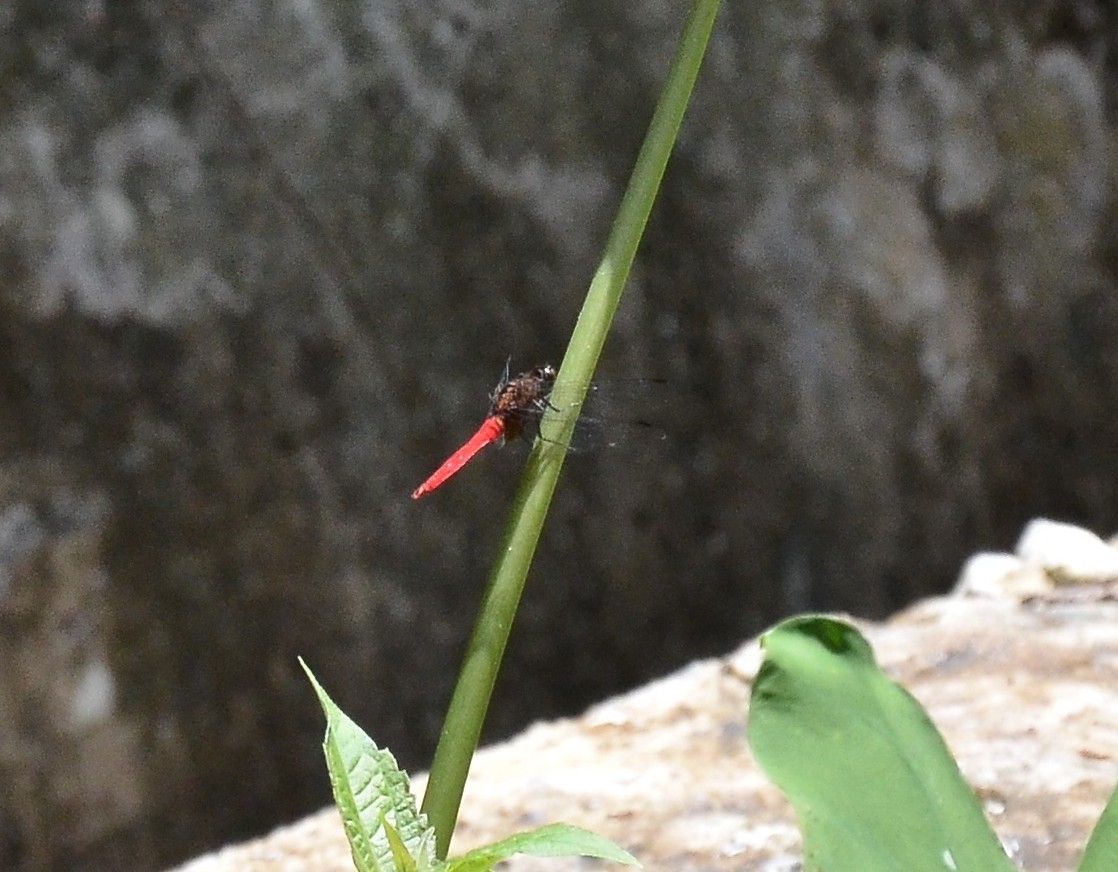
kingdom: Animalia
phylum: Arthropoda
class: Insecta
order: Odonata
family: Libellulidae
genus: Orthetrum
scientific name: Orthetrum chrysis
